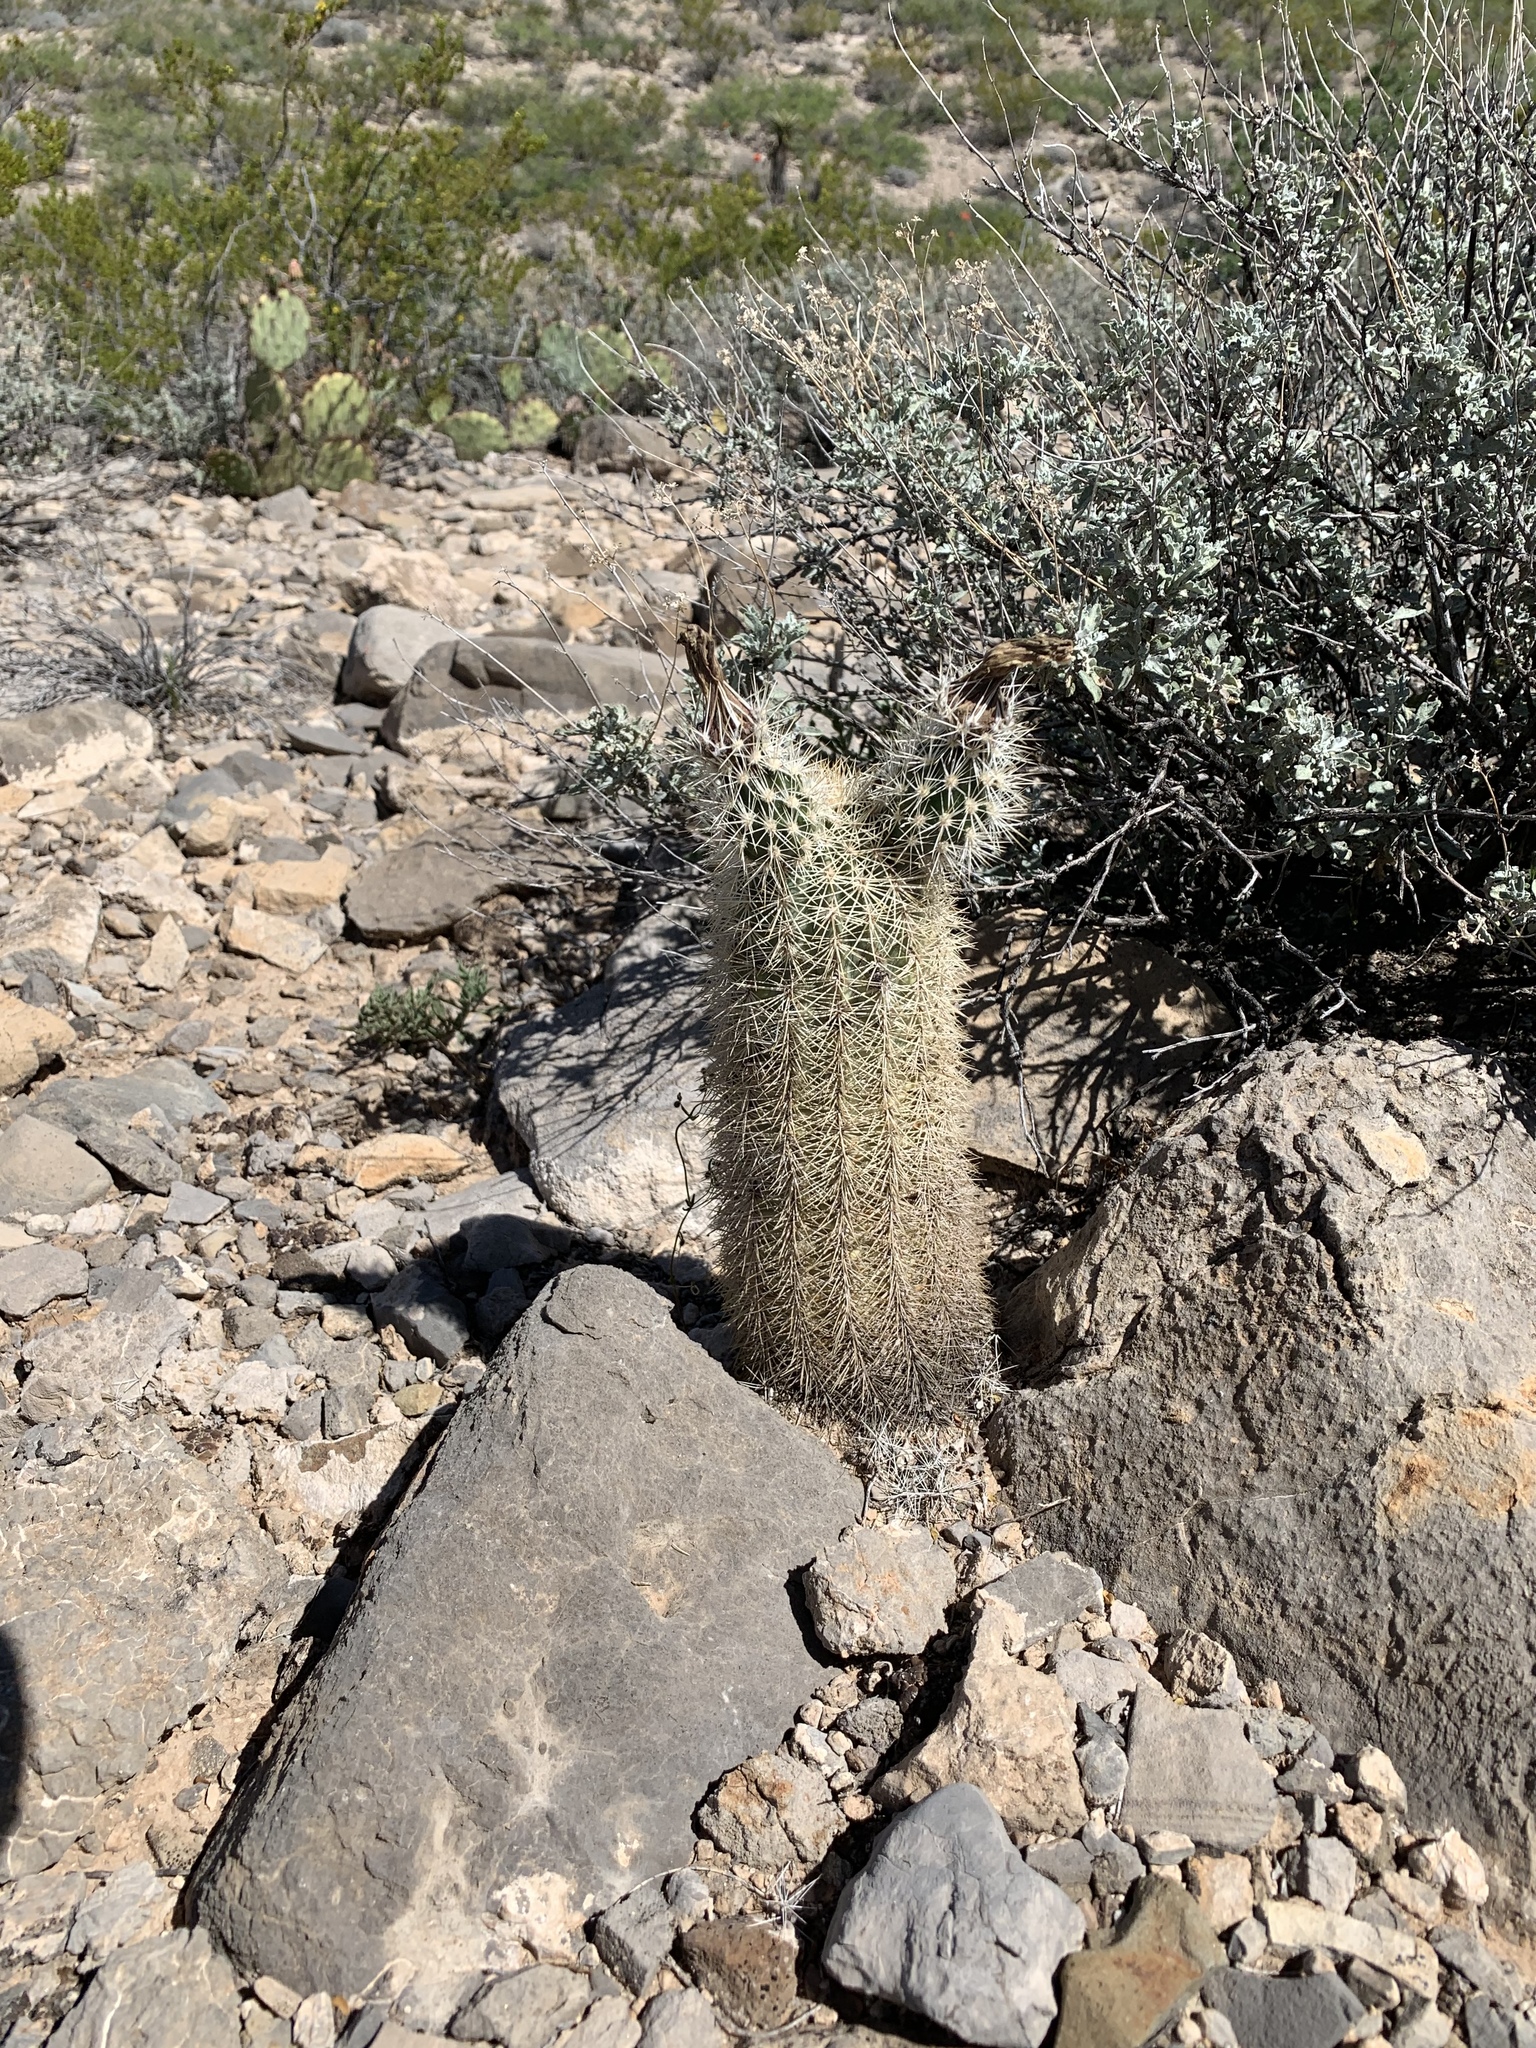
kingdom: Plantae
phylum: Tracheophyta
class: Magnoliopsida
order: Caryophyllales
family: Cactaceae
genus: Echinocereus
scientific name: Echinocereus dasyacanthus
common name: Spiny hedgehog cactus
